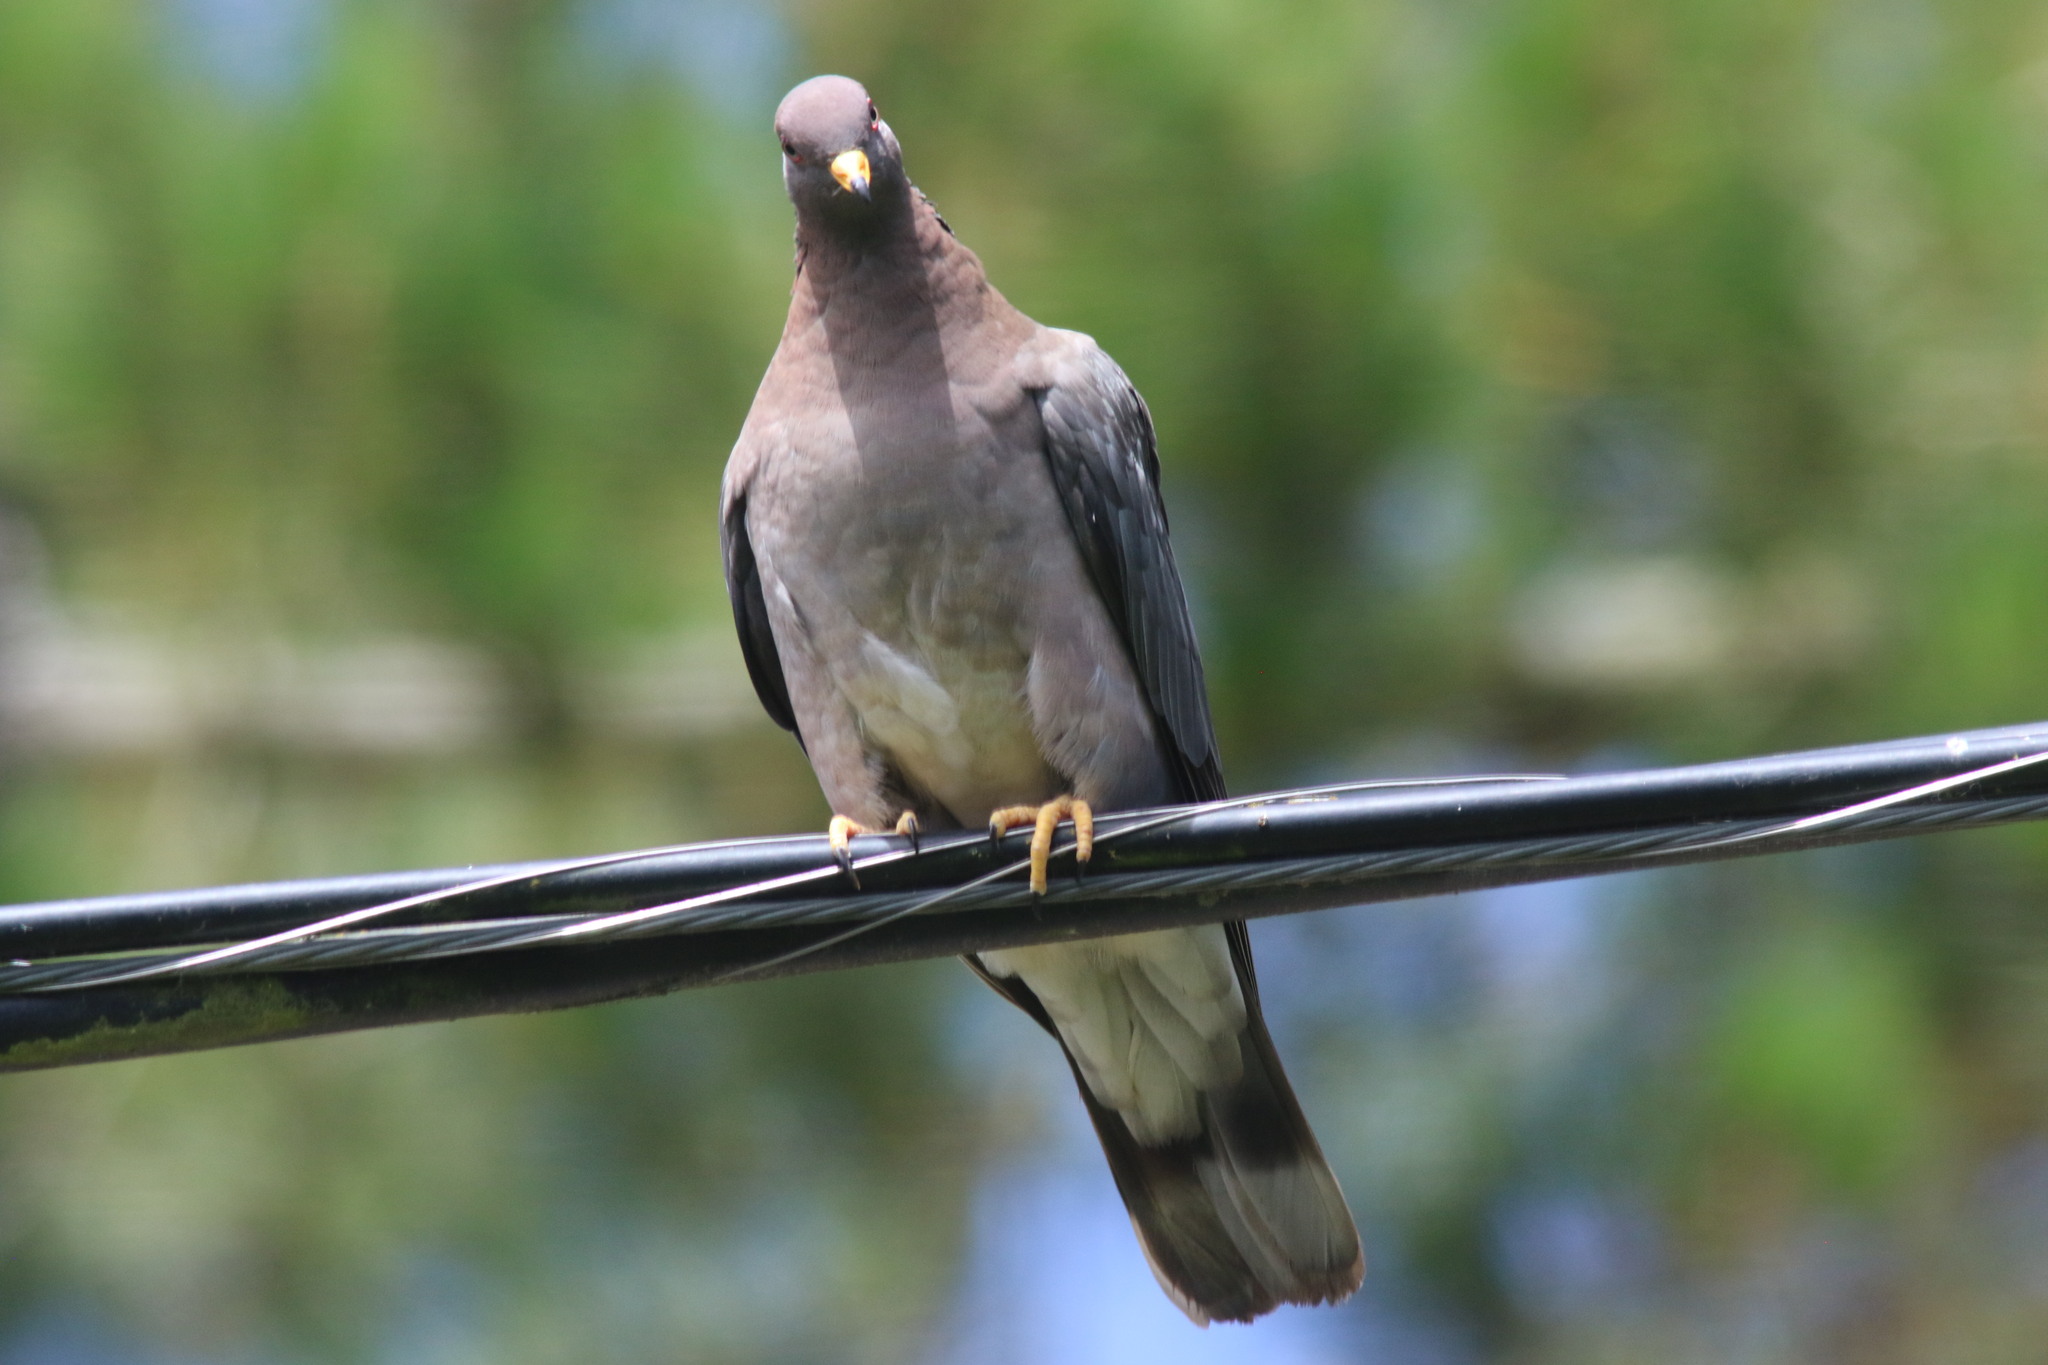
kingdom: Animalia
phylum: Chordata
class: Aves
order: Columbiformes
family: Columbidae
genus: Patagioenas
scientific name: Patagioenas fasciata
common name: Band-tailed pigeon
